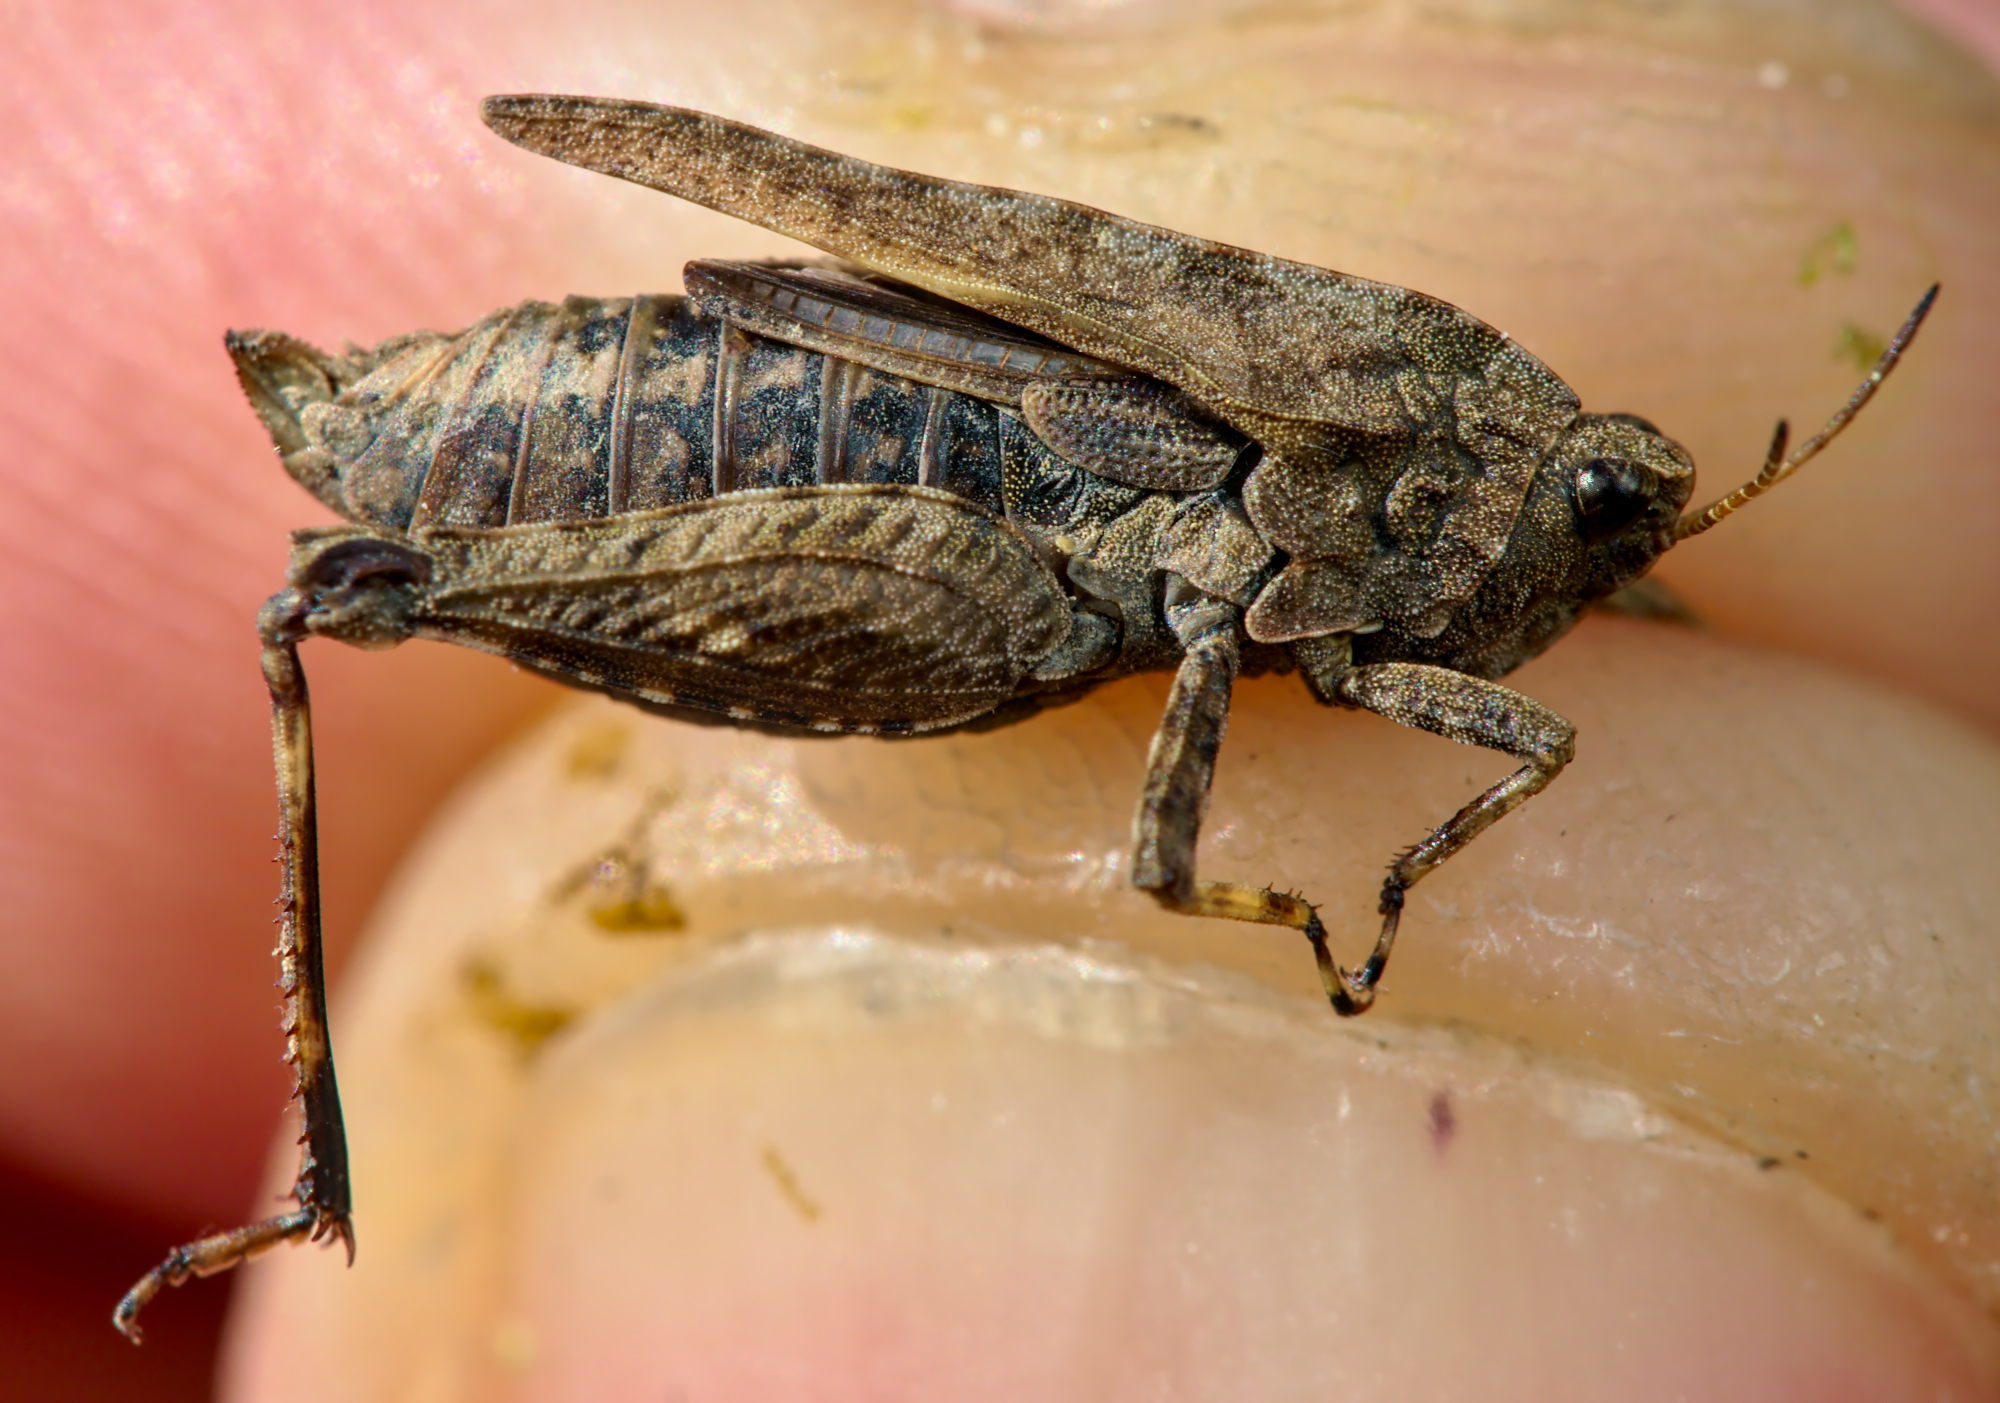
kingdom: Animalia
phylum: Arthropoda
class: Insecta
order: Orthoptera
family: Tetrigidae
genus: Tetrix
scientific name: Tetrix undulata
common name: Common groundhopper
